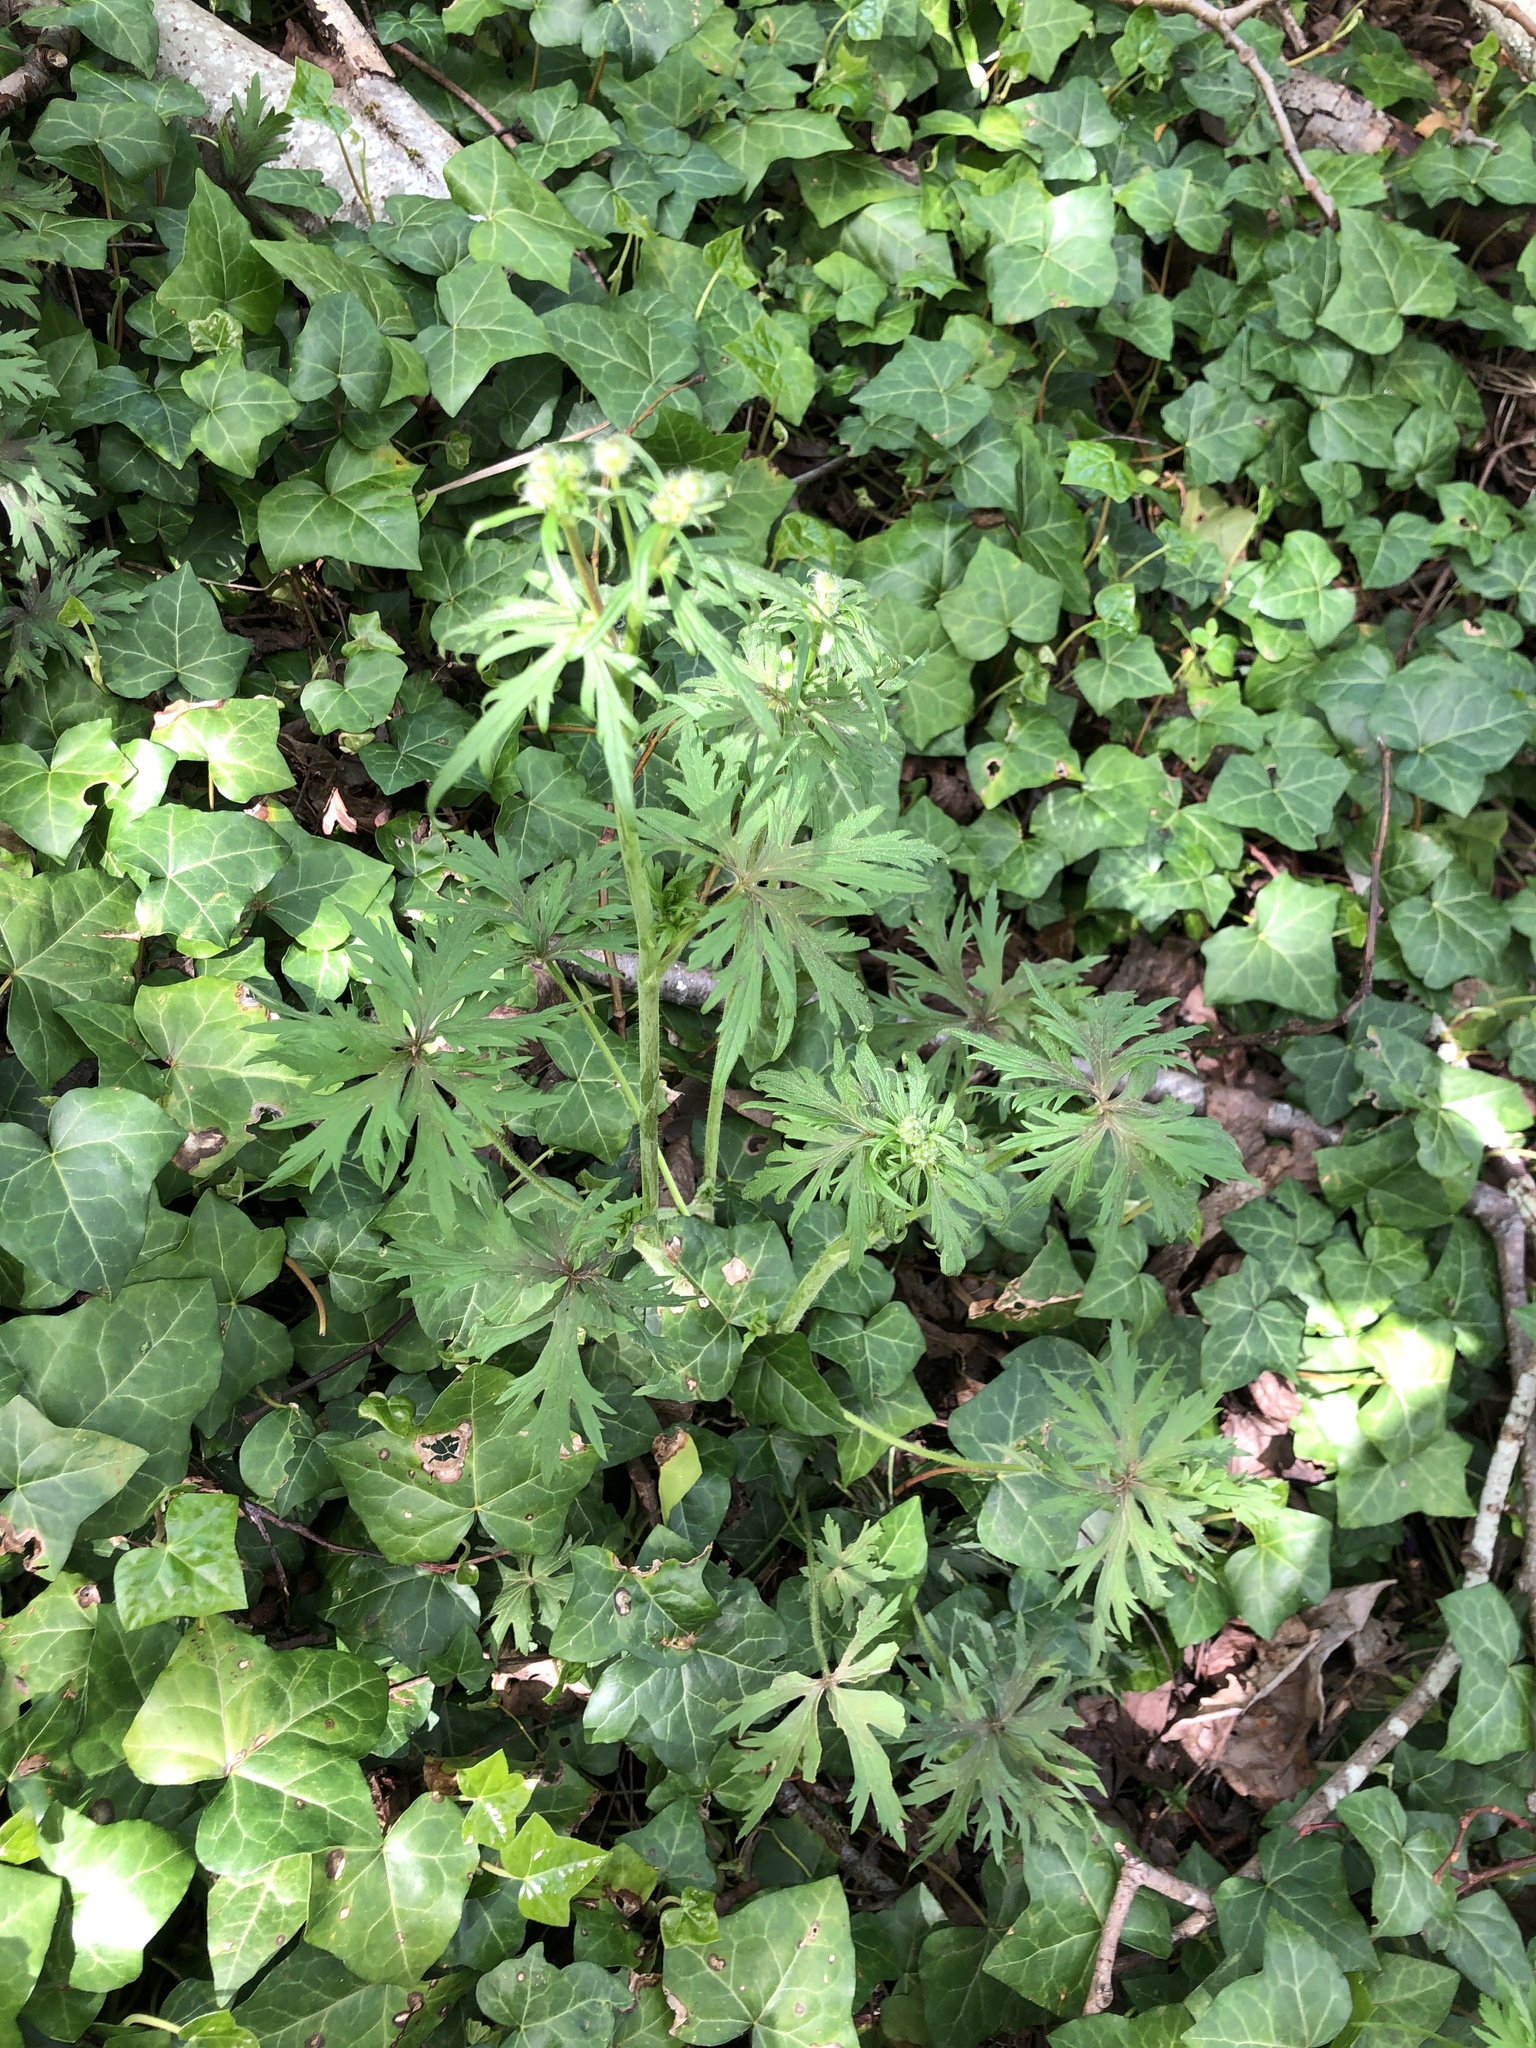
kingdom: Plantae
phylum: Tracheophyta
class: Magnoliopsida
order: Ranunculales
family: Ranunculaceae
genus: Ranunculus
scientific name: Ranunculus acris
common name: Meadow buttercup
